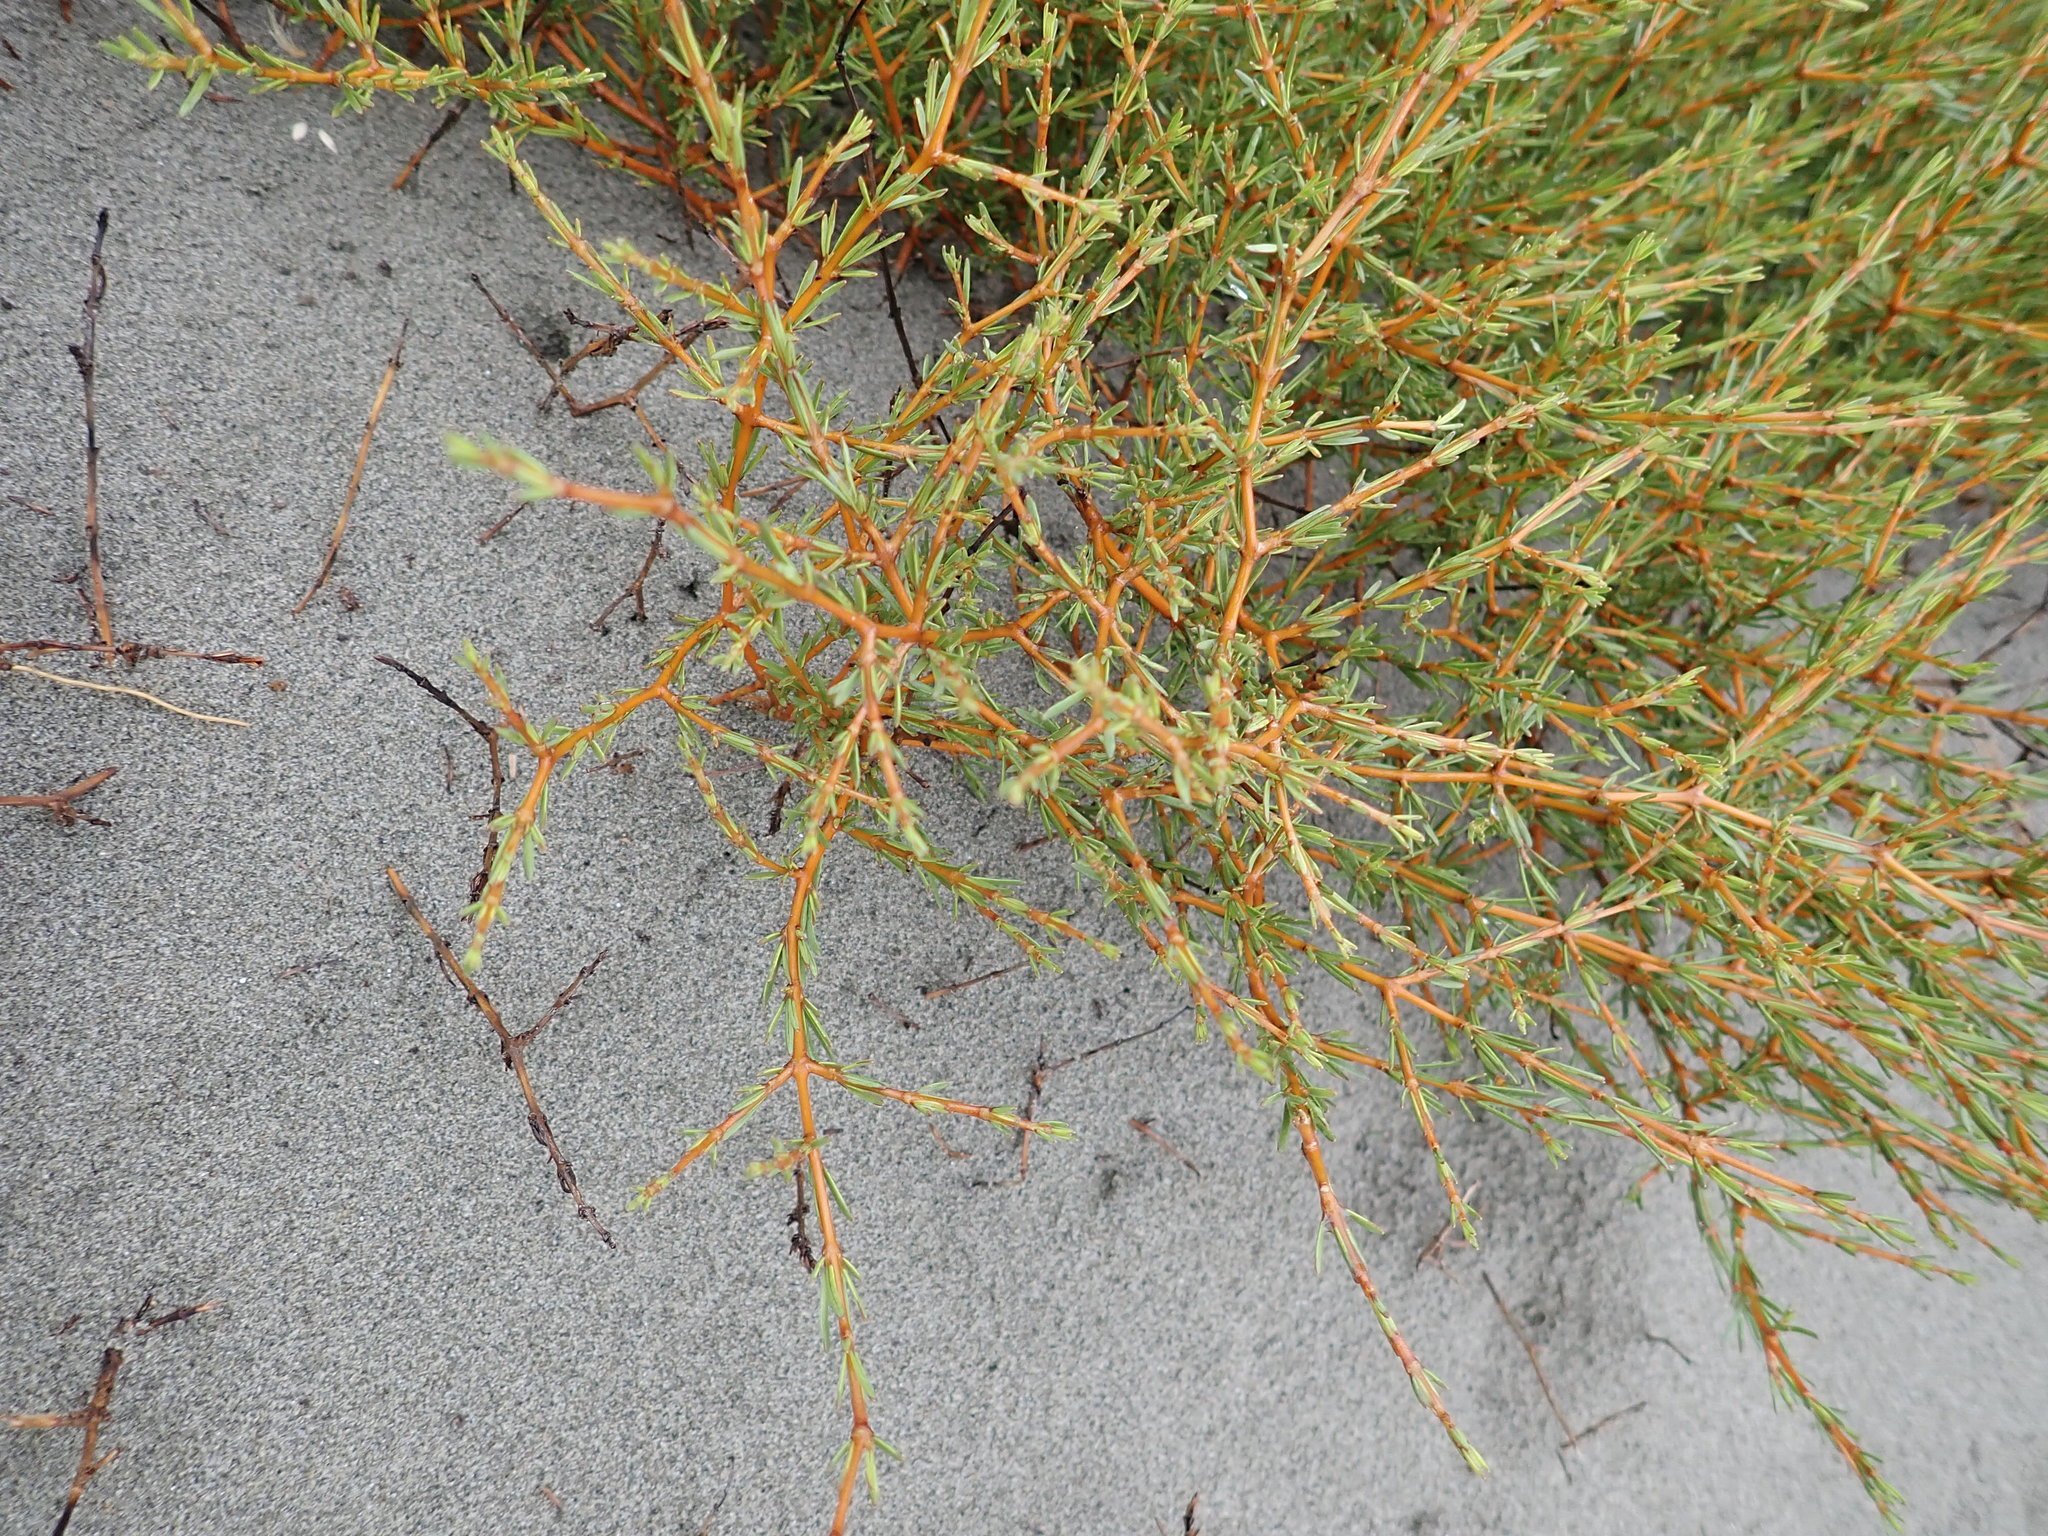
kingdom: Plantae
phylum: Tracheophyta
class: Magnoliopsida
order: Gentianales
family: Rubiaceae
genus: Coprosma
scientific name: Coprosma acerosa
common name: Sand coprosma
